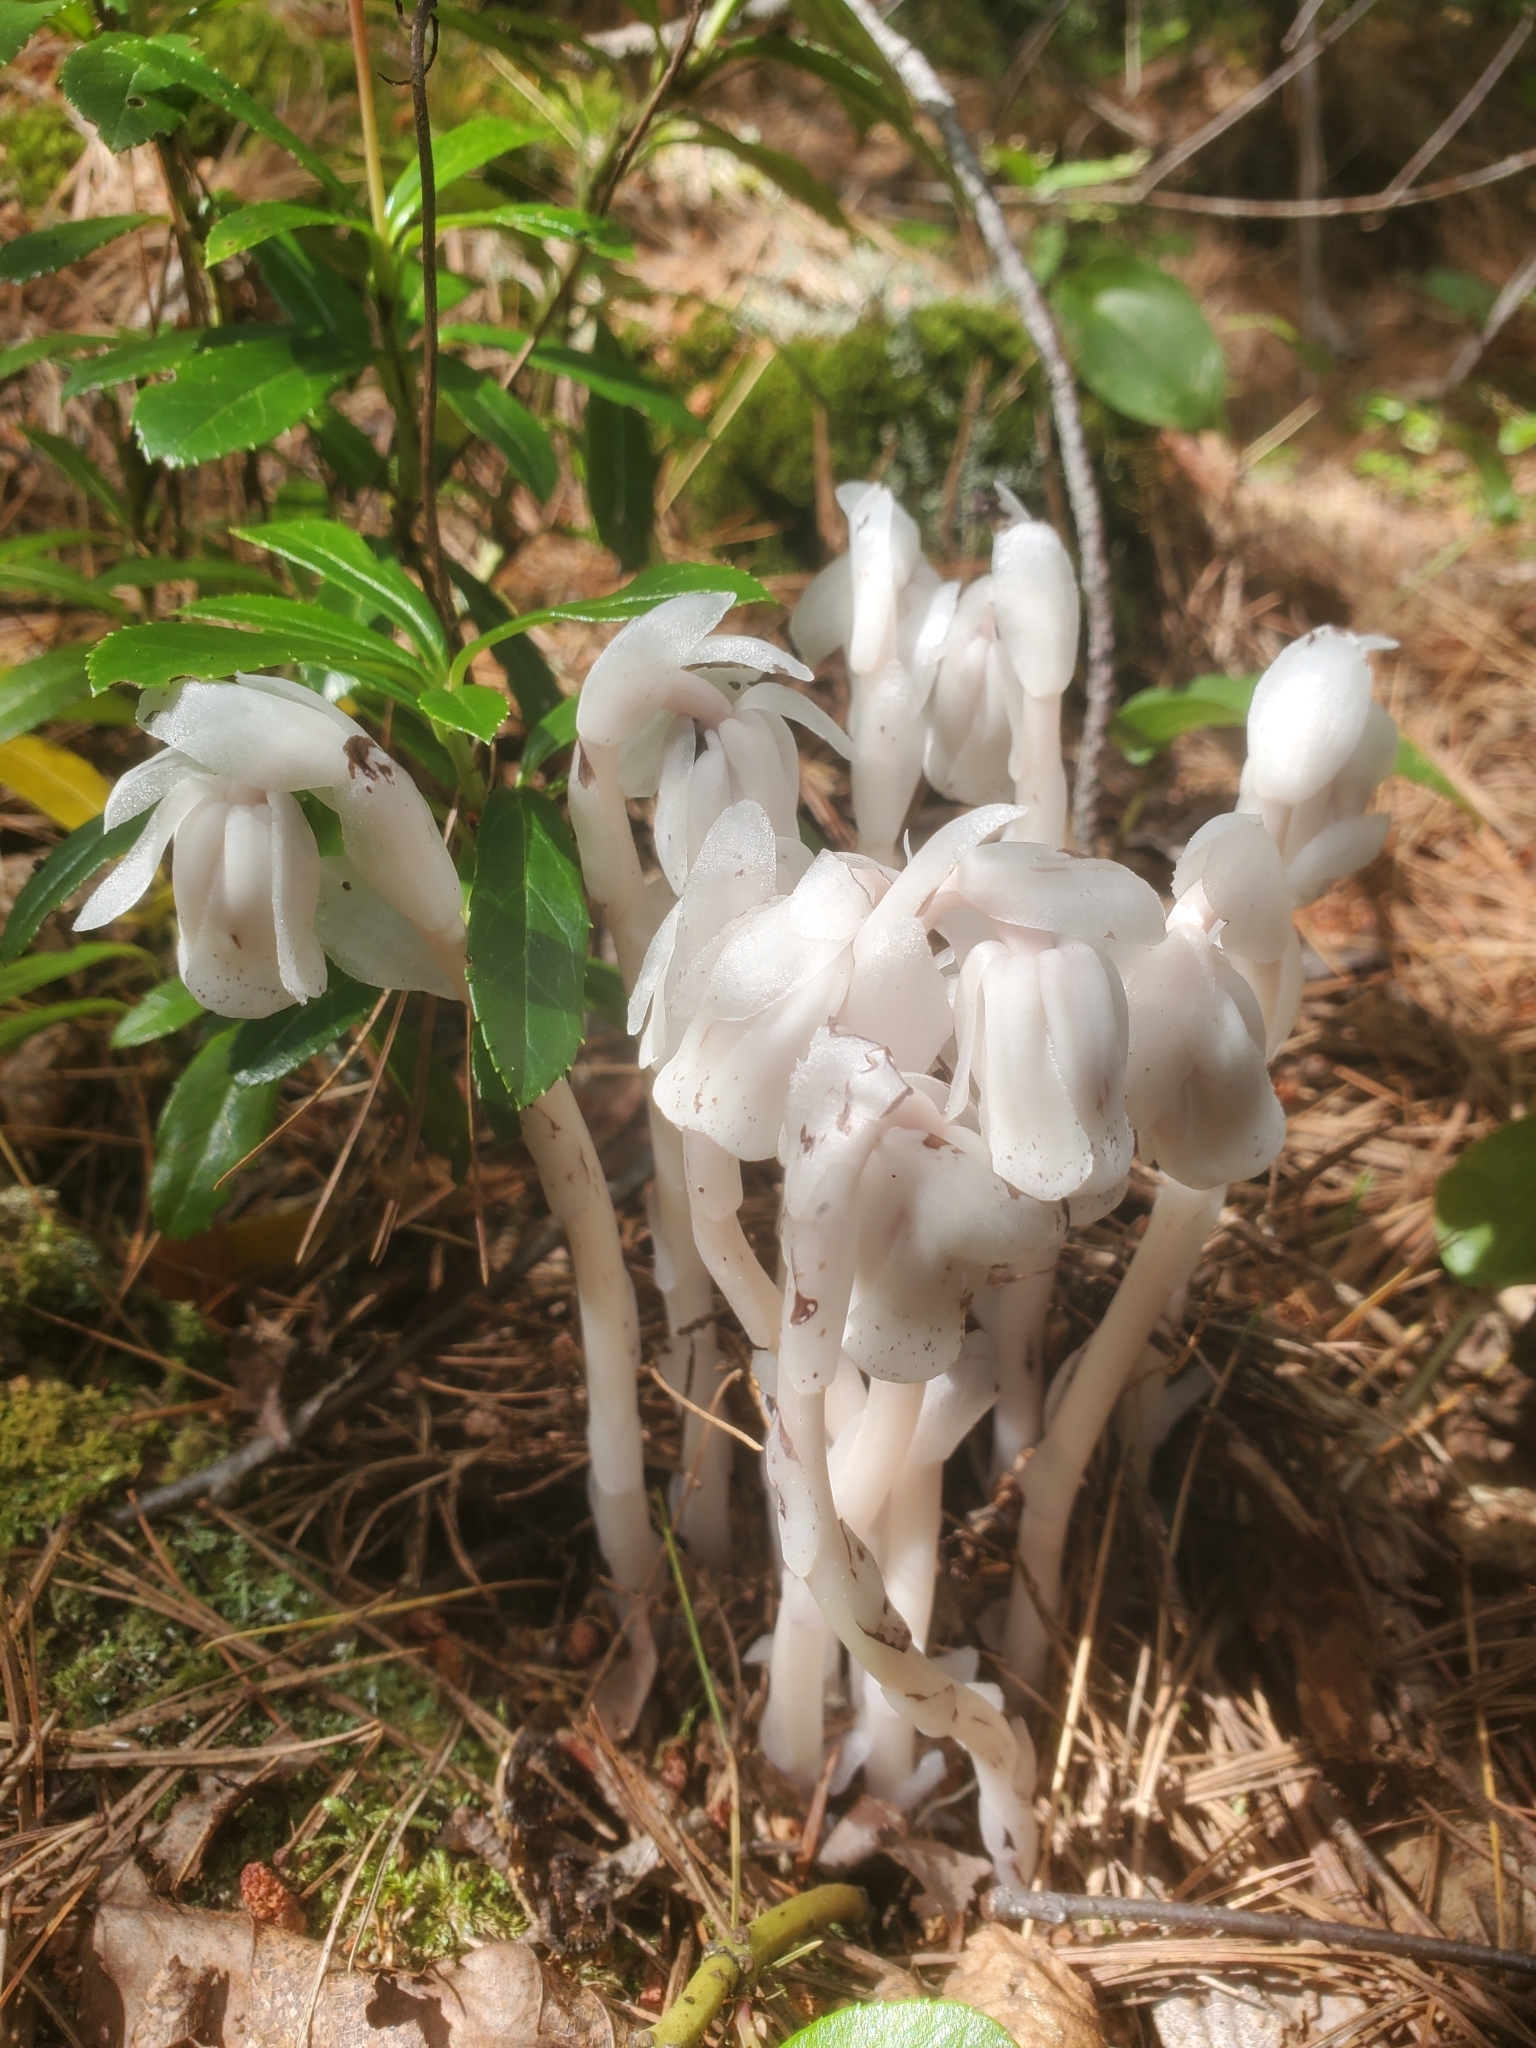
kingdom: Plantae
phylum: Tracheophyta
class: Magnoliopsida
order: Ericales
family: Ericaceae
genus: Monotropa
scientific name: Monotropa uniflora
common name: Convulsion root
